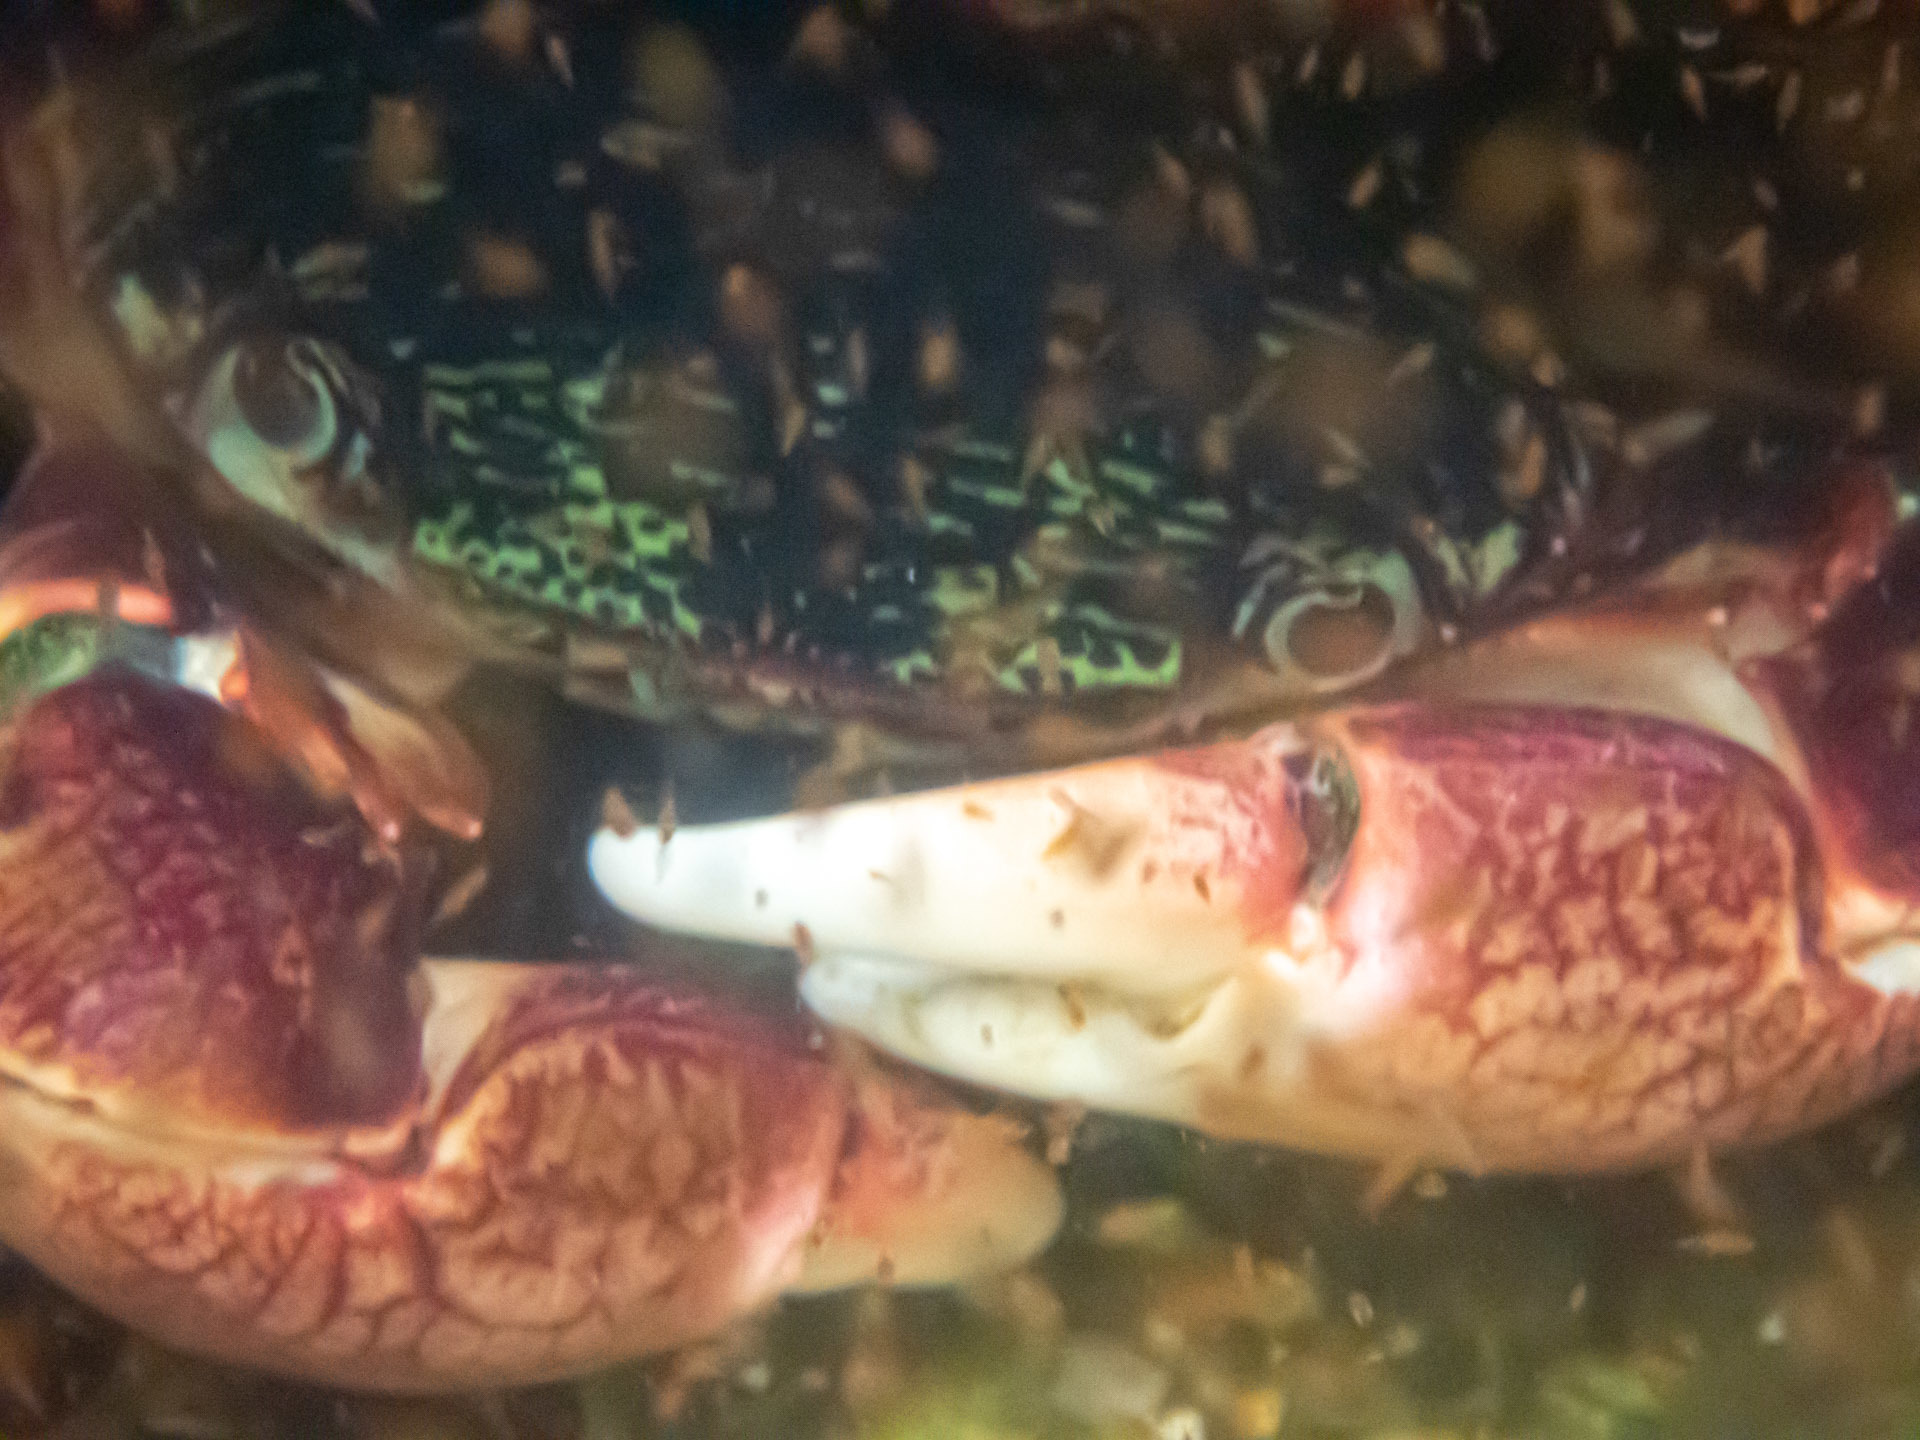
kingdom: Animalia
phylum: Arthropoda
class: Malacostraca
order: Decapoda
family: Grapsidae
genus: Pachygrapsus
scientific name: Pachygrapsus crassipes
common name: Striped shore crab
